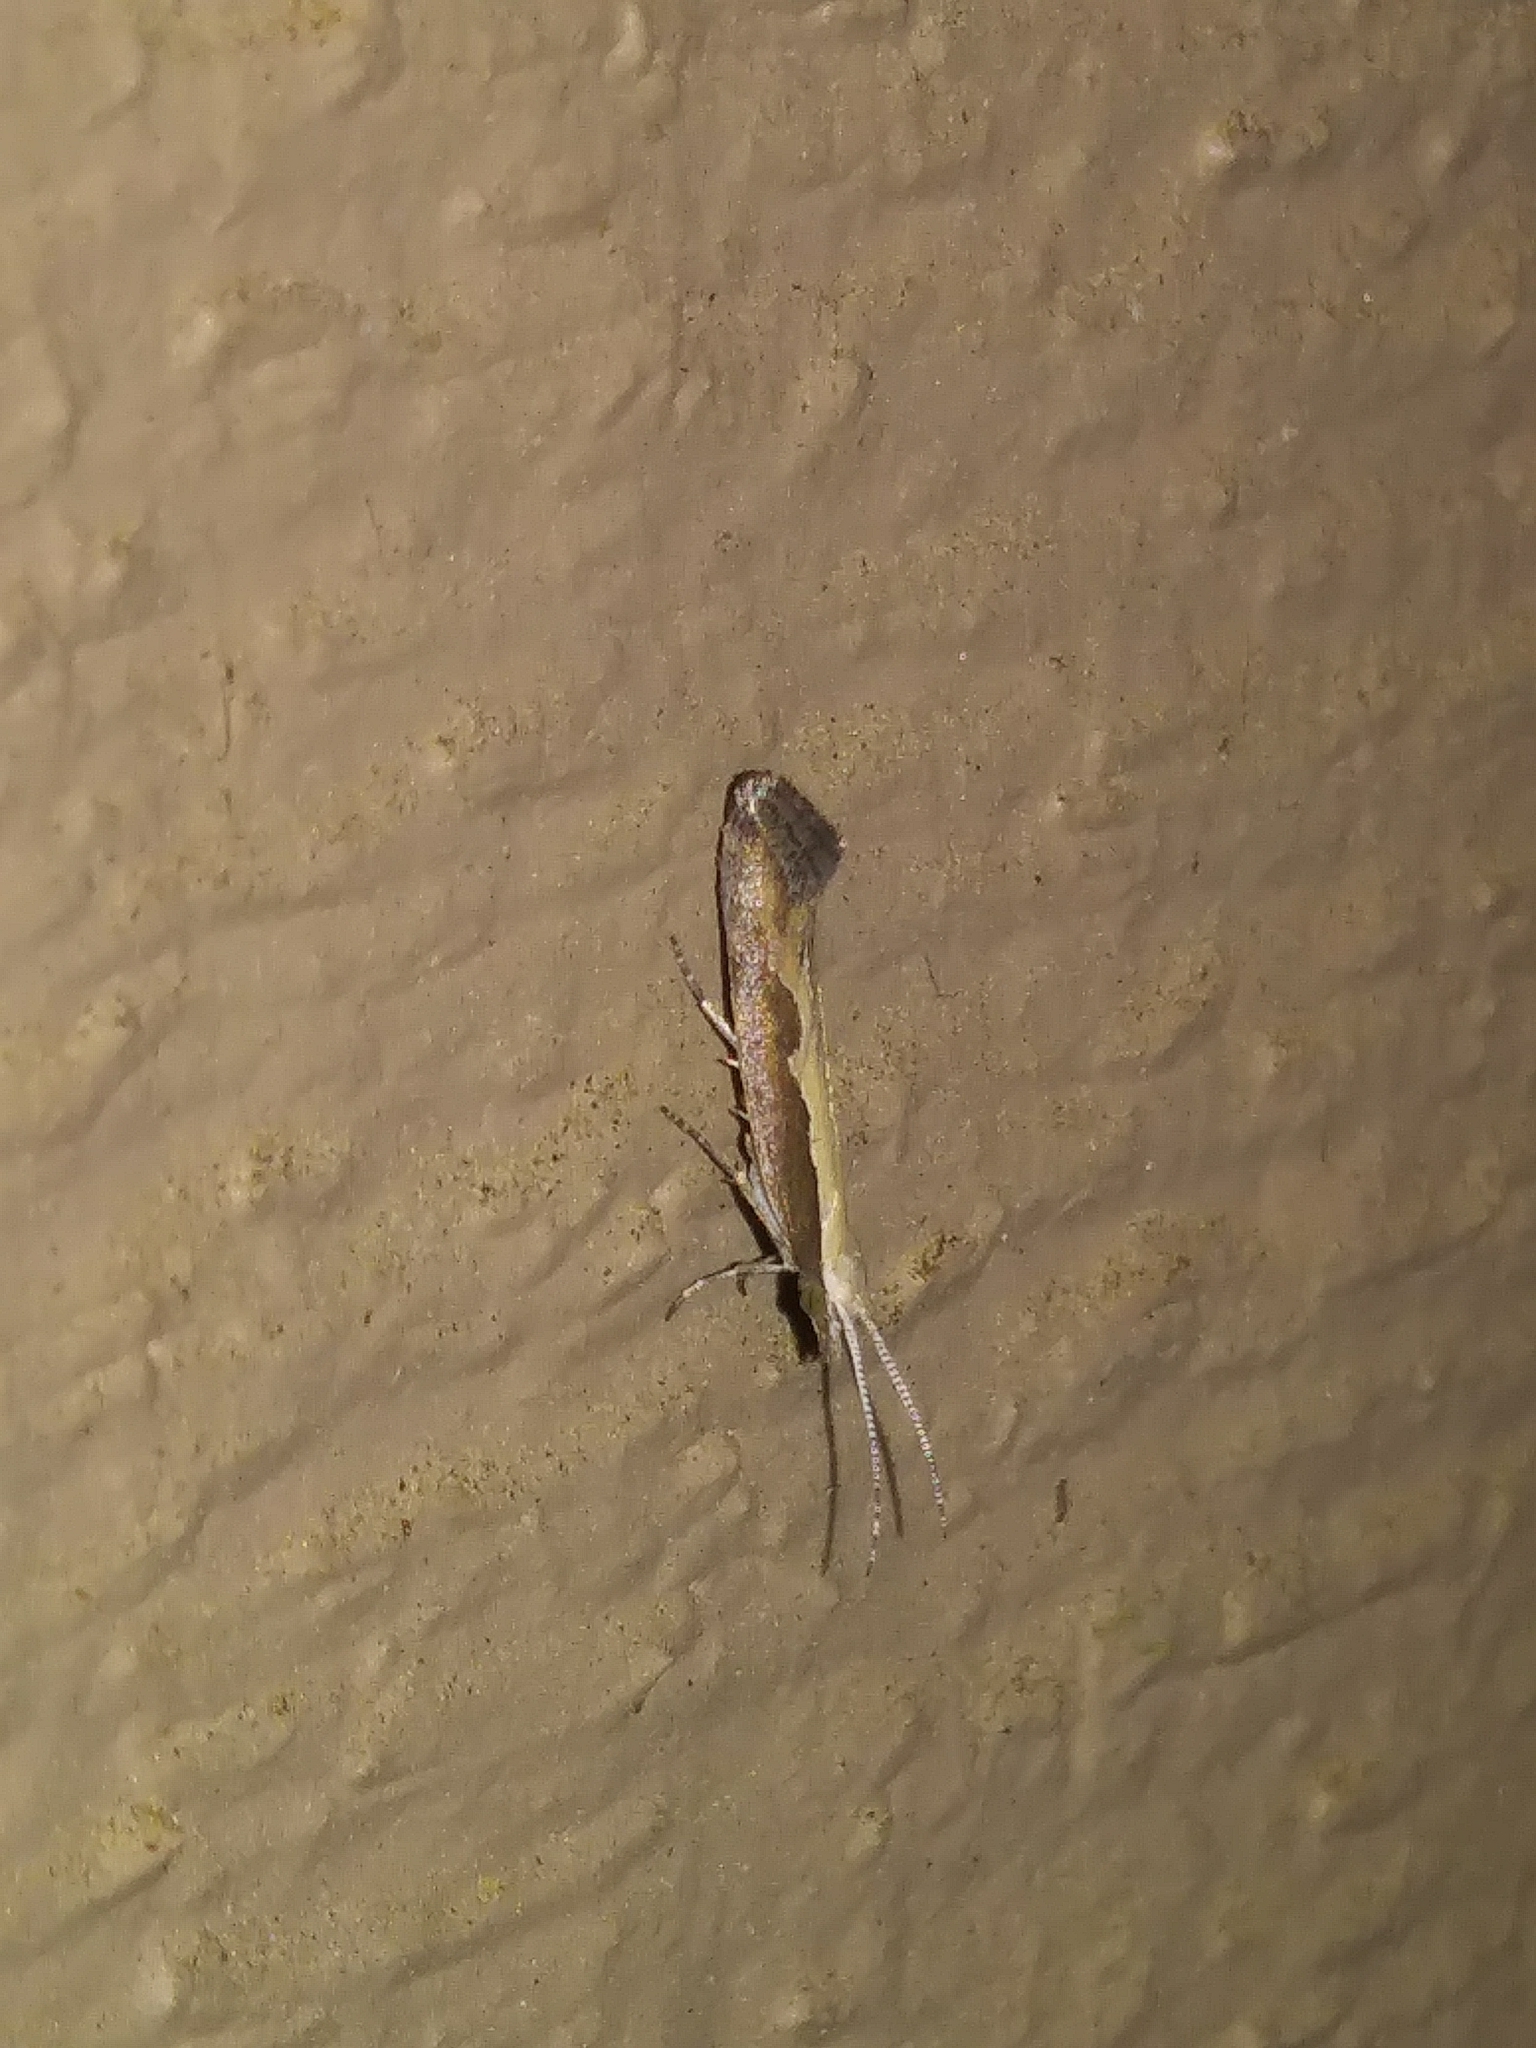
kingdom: Animalia
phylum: Arthropoda
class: Insecta
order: Lepidoptera
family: Plutellidae
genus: Plutella
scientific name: Plutella xylostella
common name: Diamond-back moth
